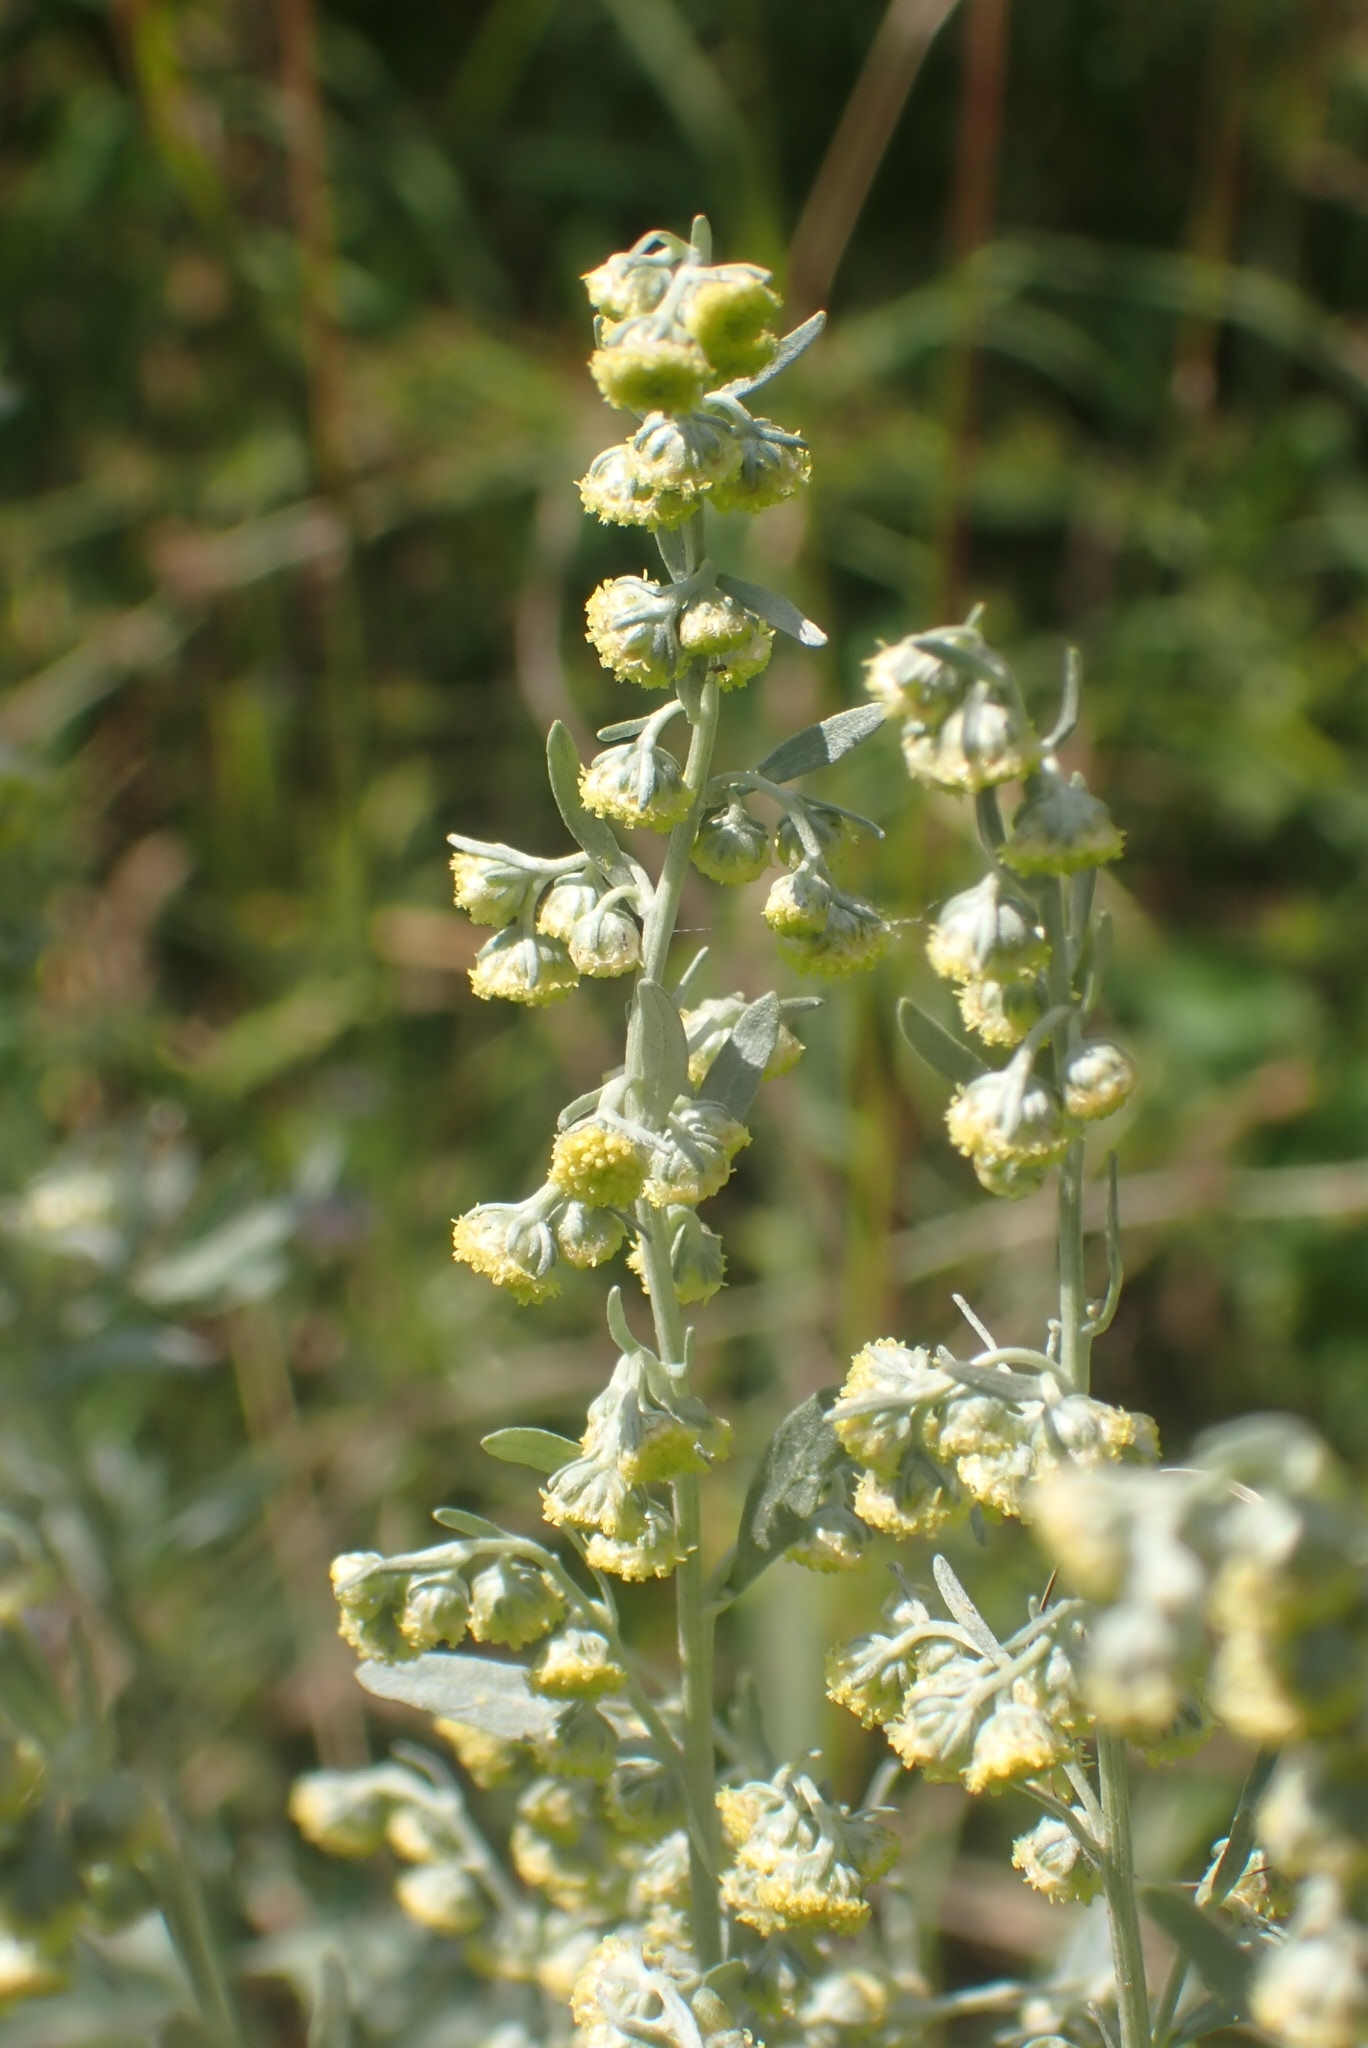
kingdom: Plantae
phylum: Tracheophyta
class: Magnoliopsida
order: Asterales
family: Asteraceae
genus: Artemisia
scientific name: Artemisia absinthium
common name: Wormwood
